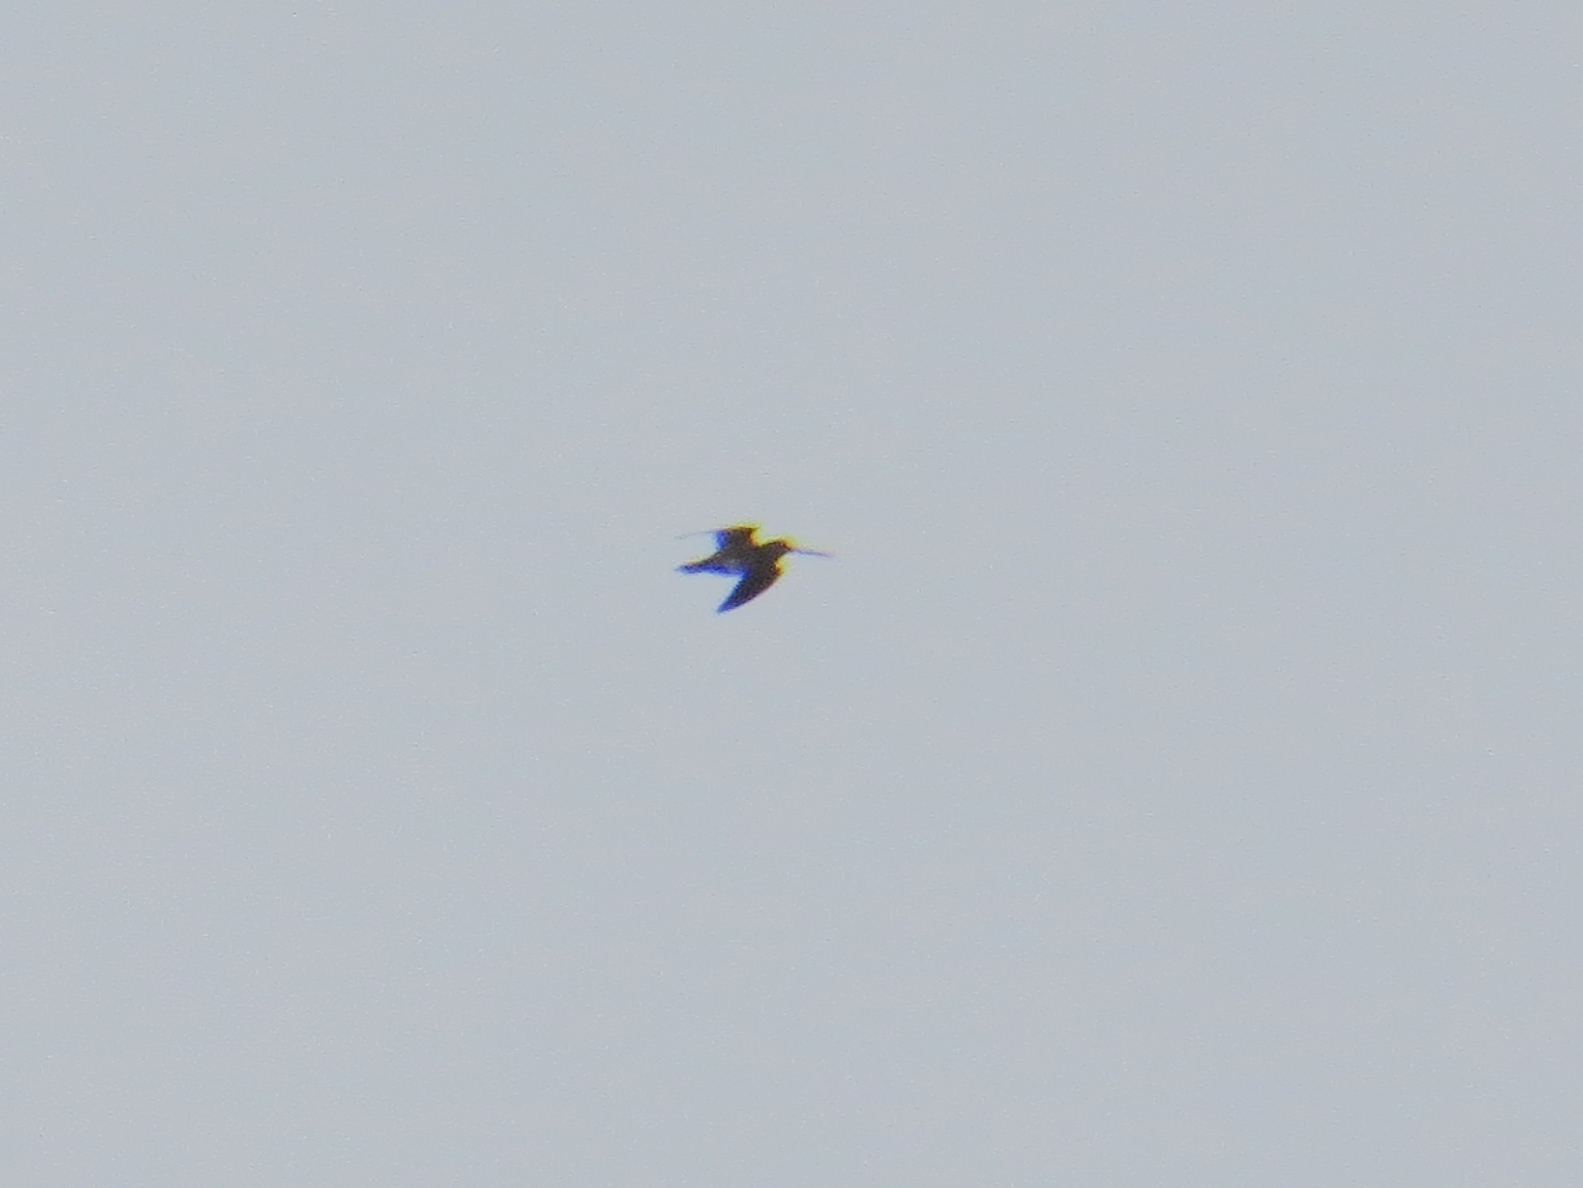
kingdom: Animalia
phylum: Chordata
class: Aves
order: Charadriiformes
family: Scolopacidae
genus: Gallinago
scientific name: Gallinago gallinago
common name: Common snipe
